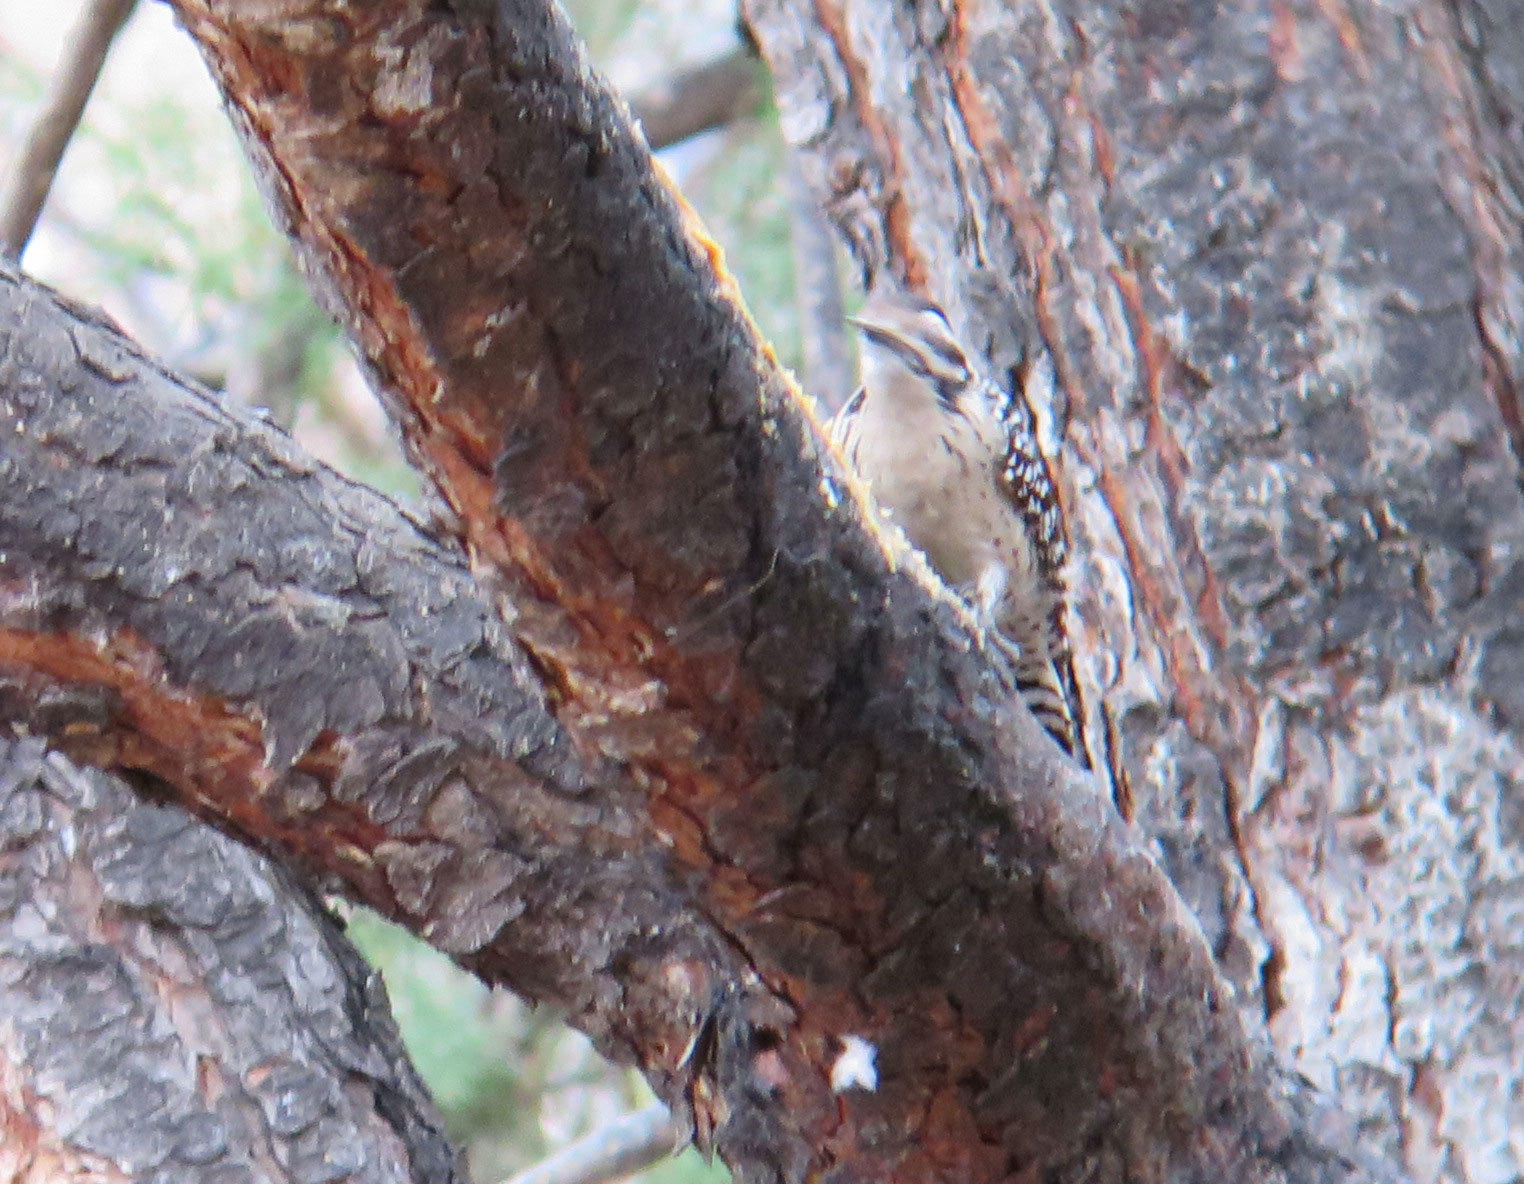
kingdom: Animalia
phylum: Chordata
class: Aves
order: Piciformes
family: Picidae
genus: Dryobates
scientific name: Dryobates scalaris
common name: Ladder-backed woodpecker
